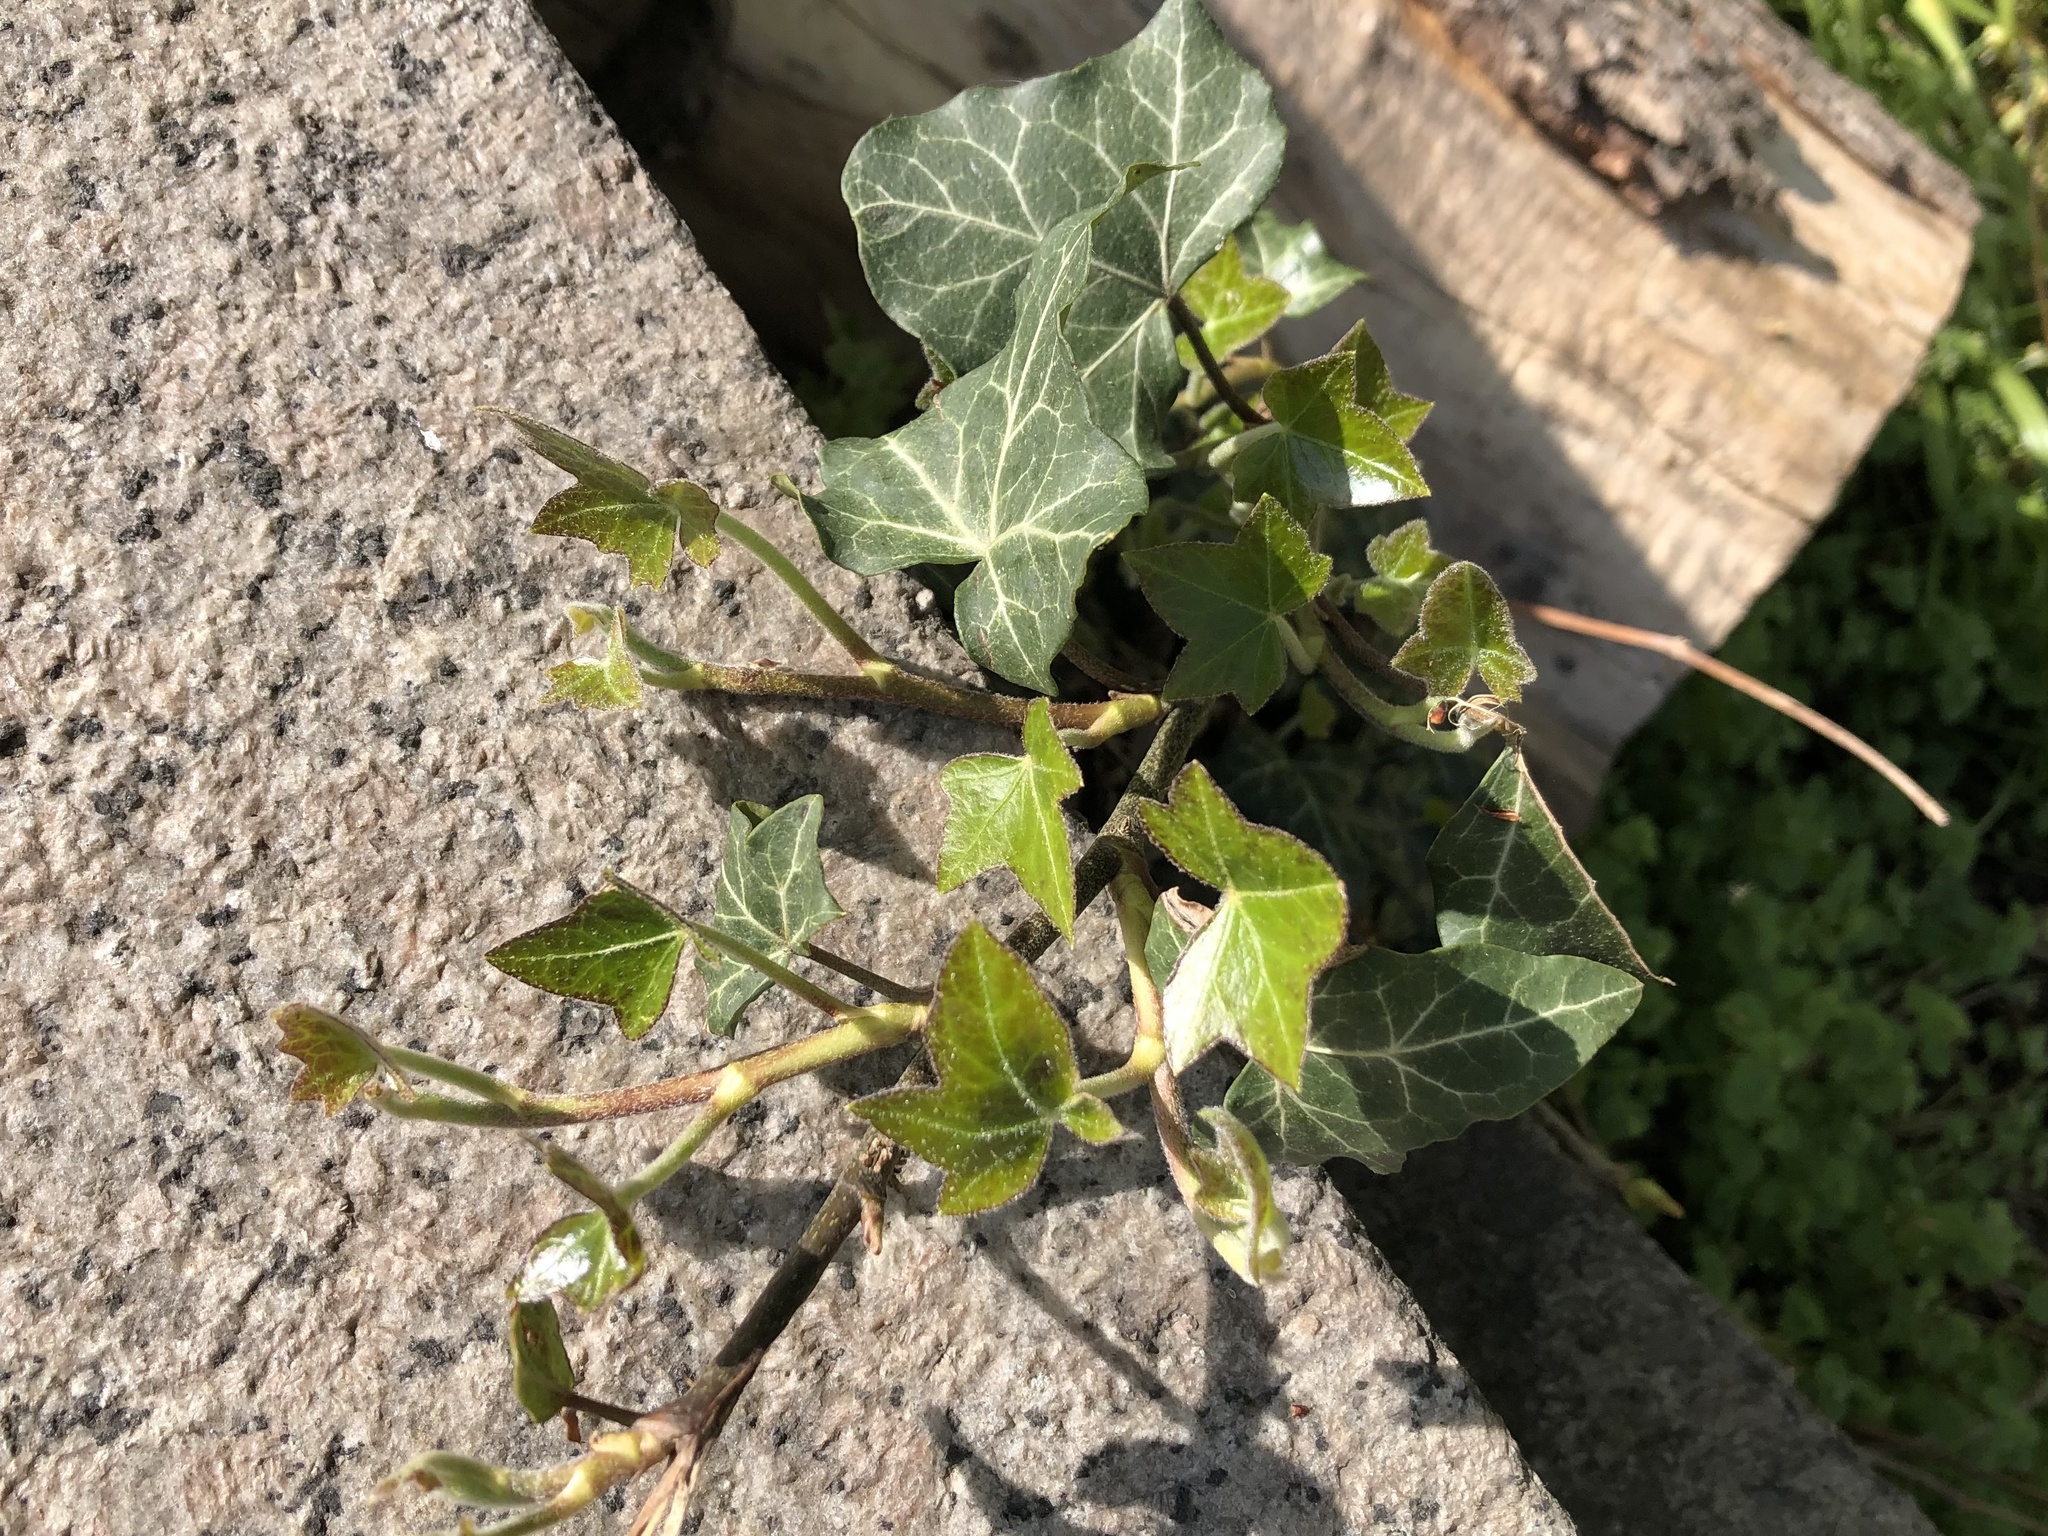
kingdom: Plantae
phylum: Tracheophyta
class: Magnoliopsida
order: Apiales
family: Araliaceae
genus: Hedera
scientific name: Hedera helix
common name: Ivy
